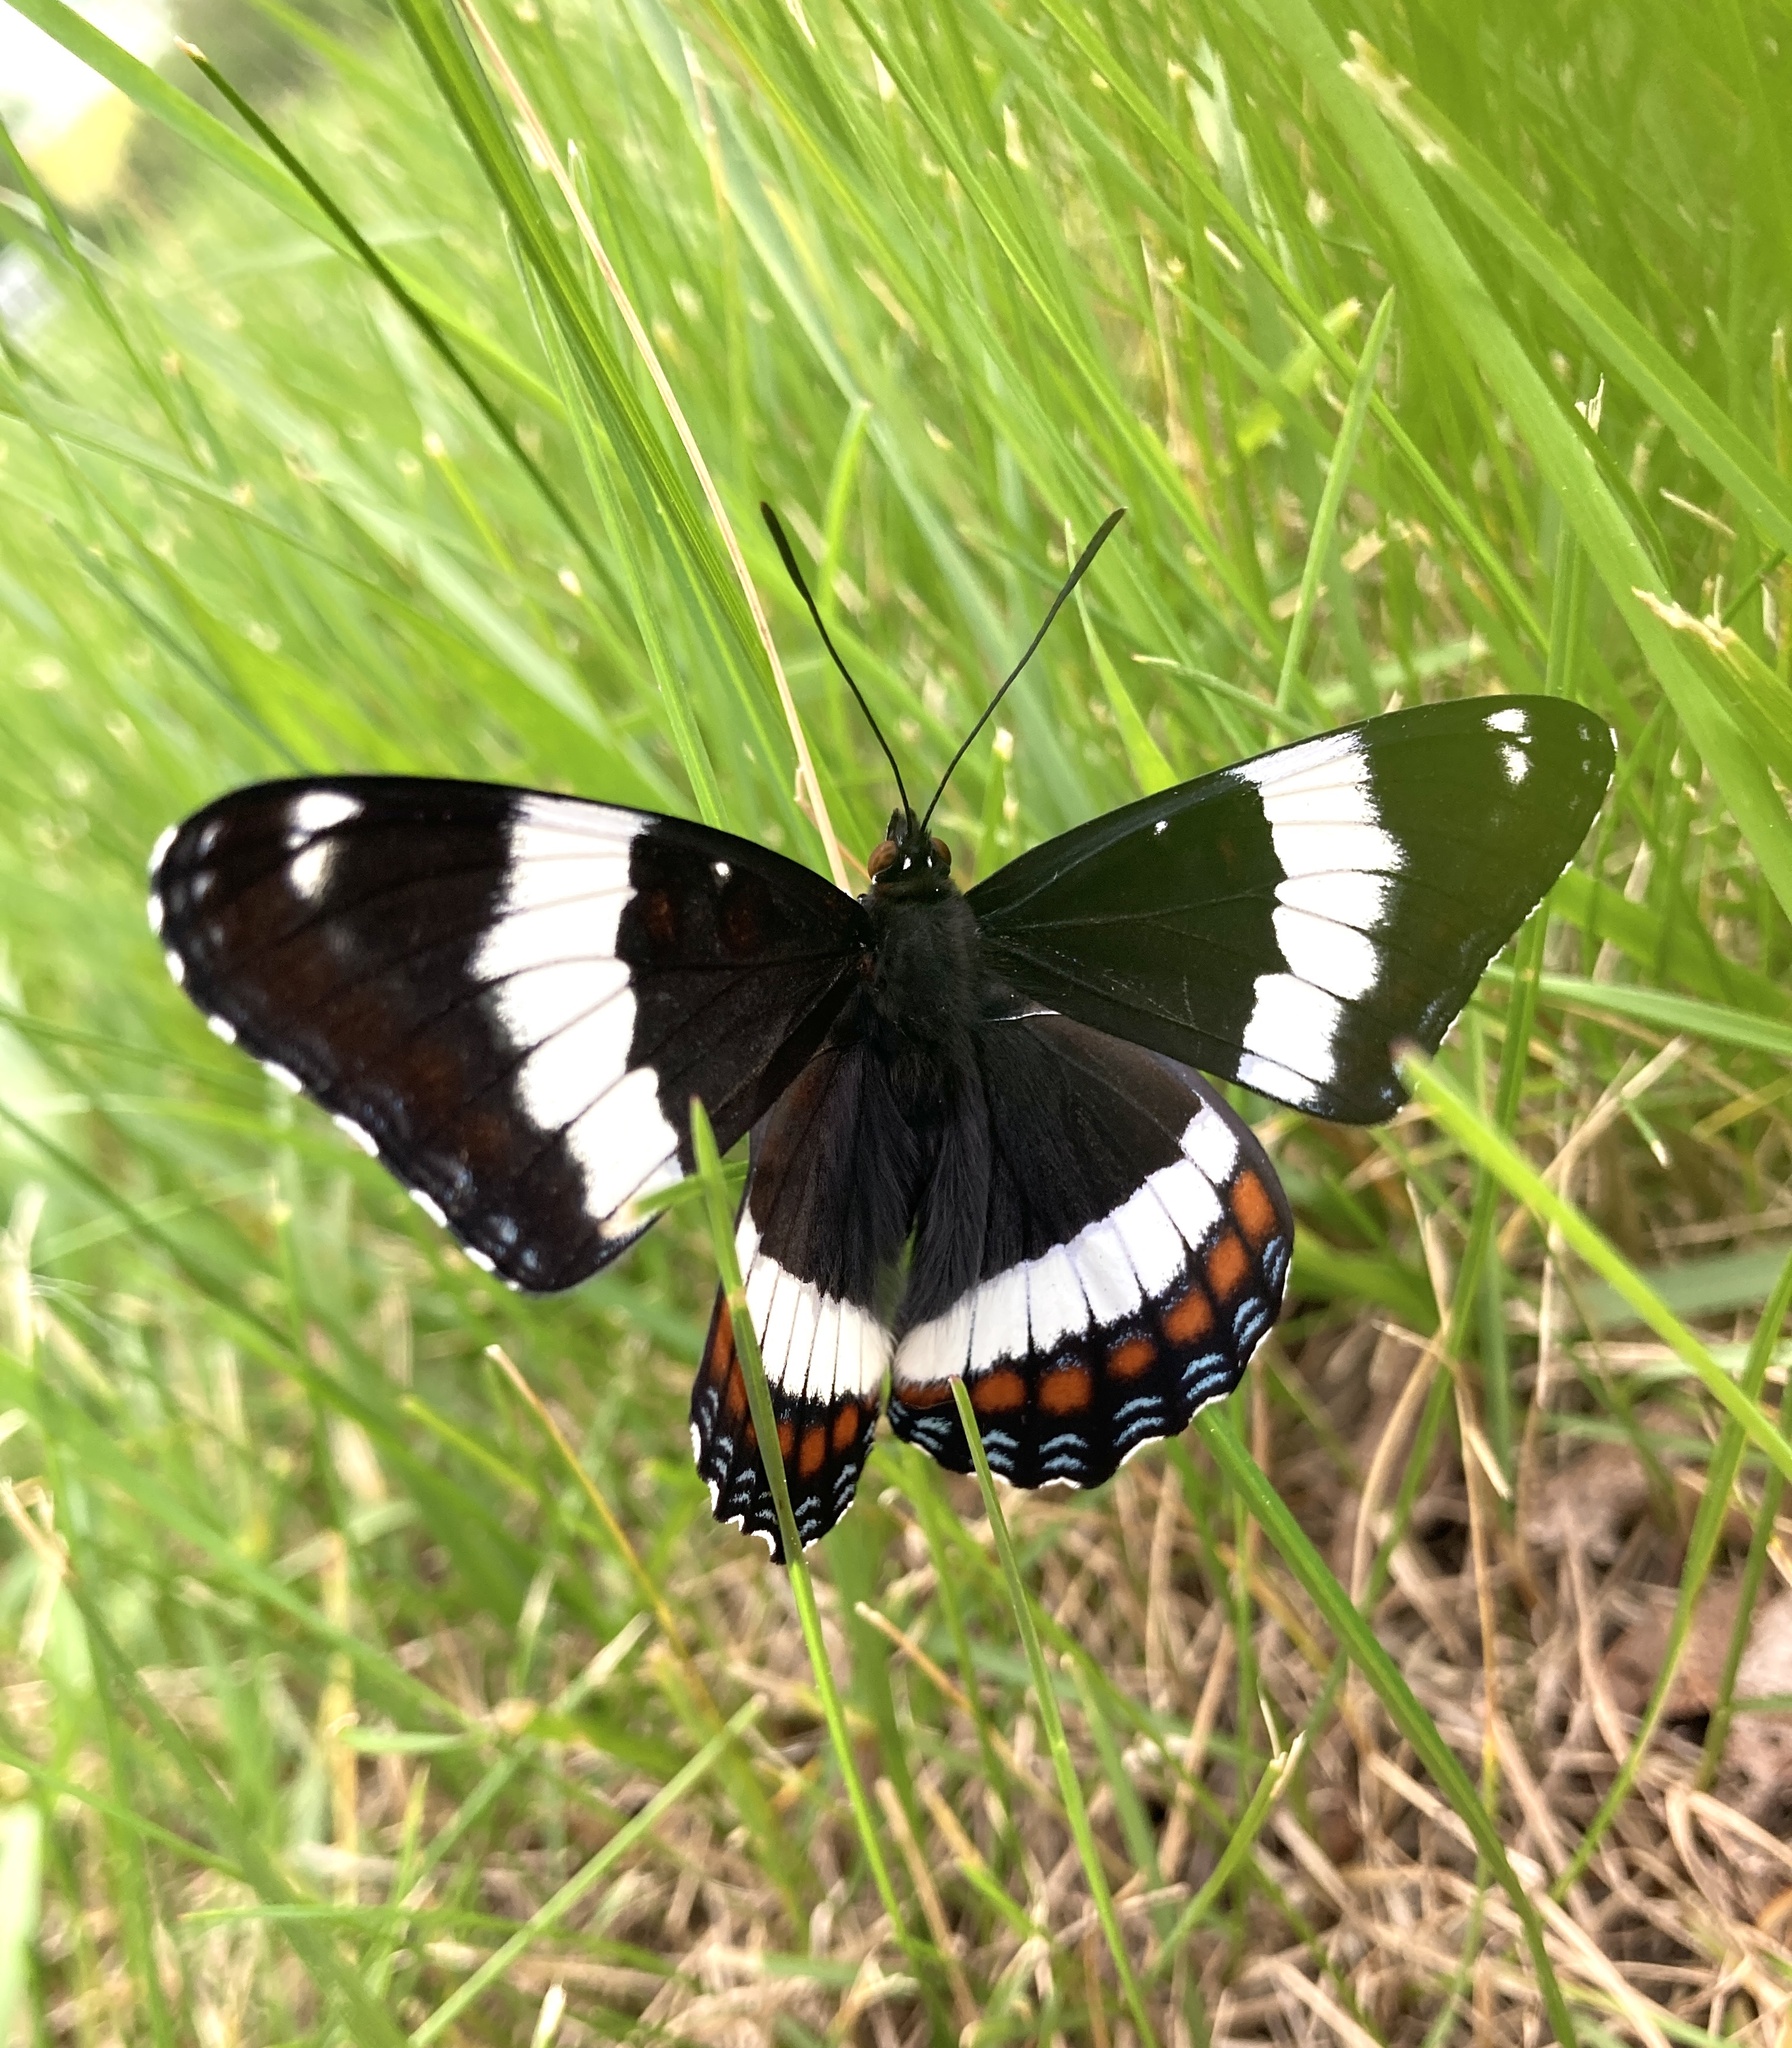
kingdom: Animalia
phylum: Arthropoda
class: Insecta
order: Lepidoptera
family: Nymphalidae
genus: Limenitis
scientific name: Limenitis arthemis
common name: Red-spotted admiral
